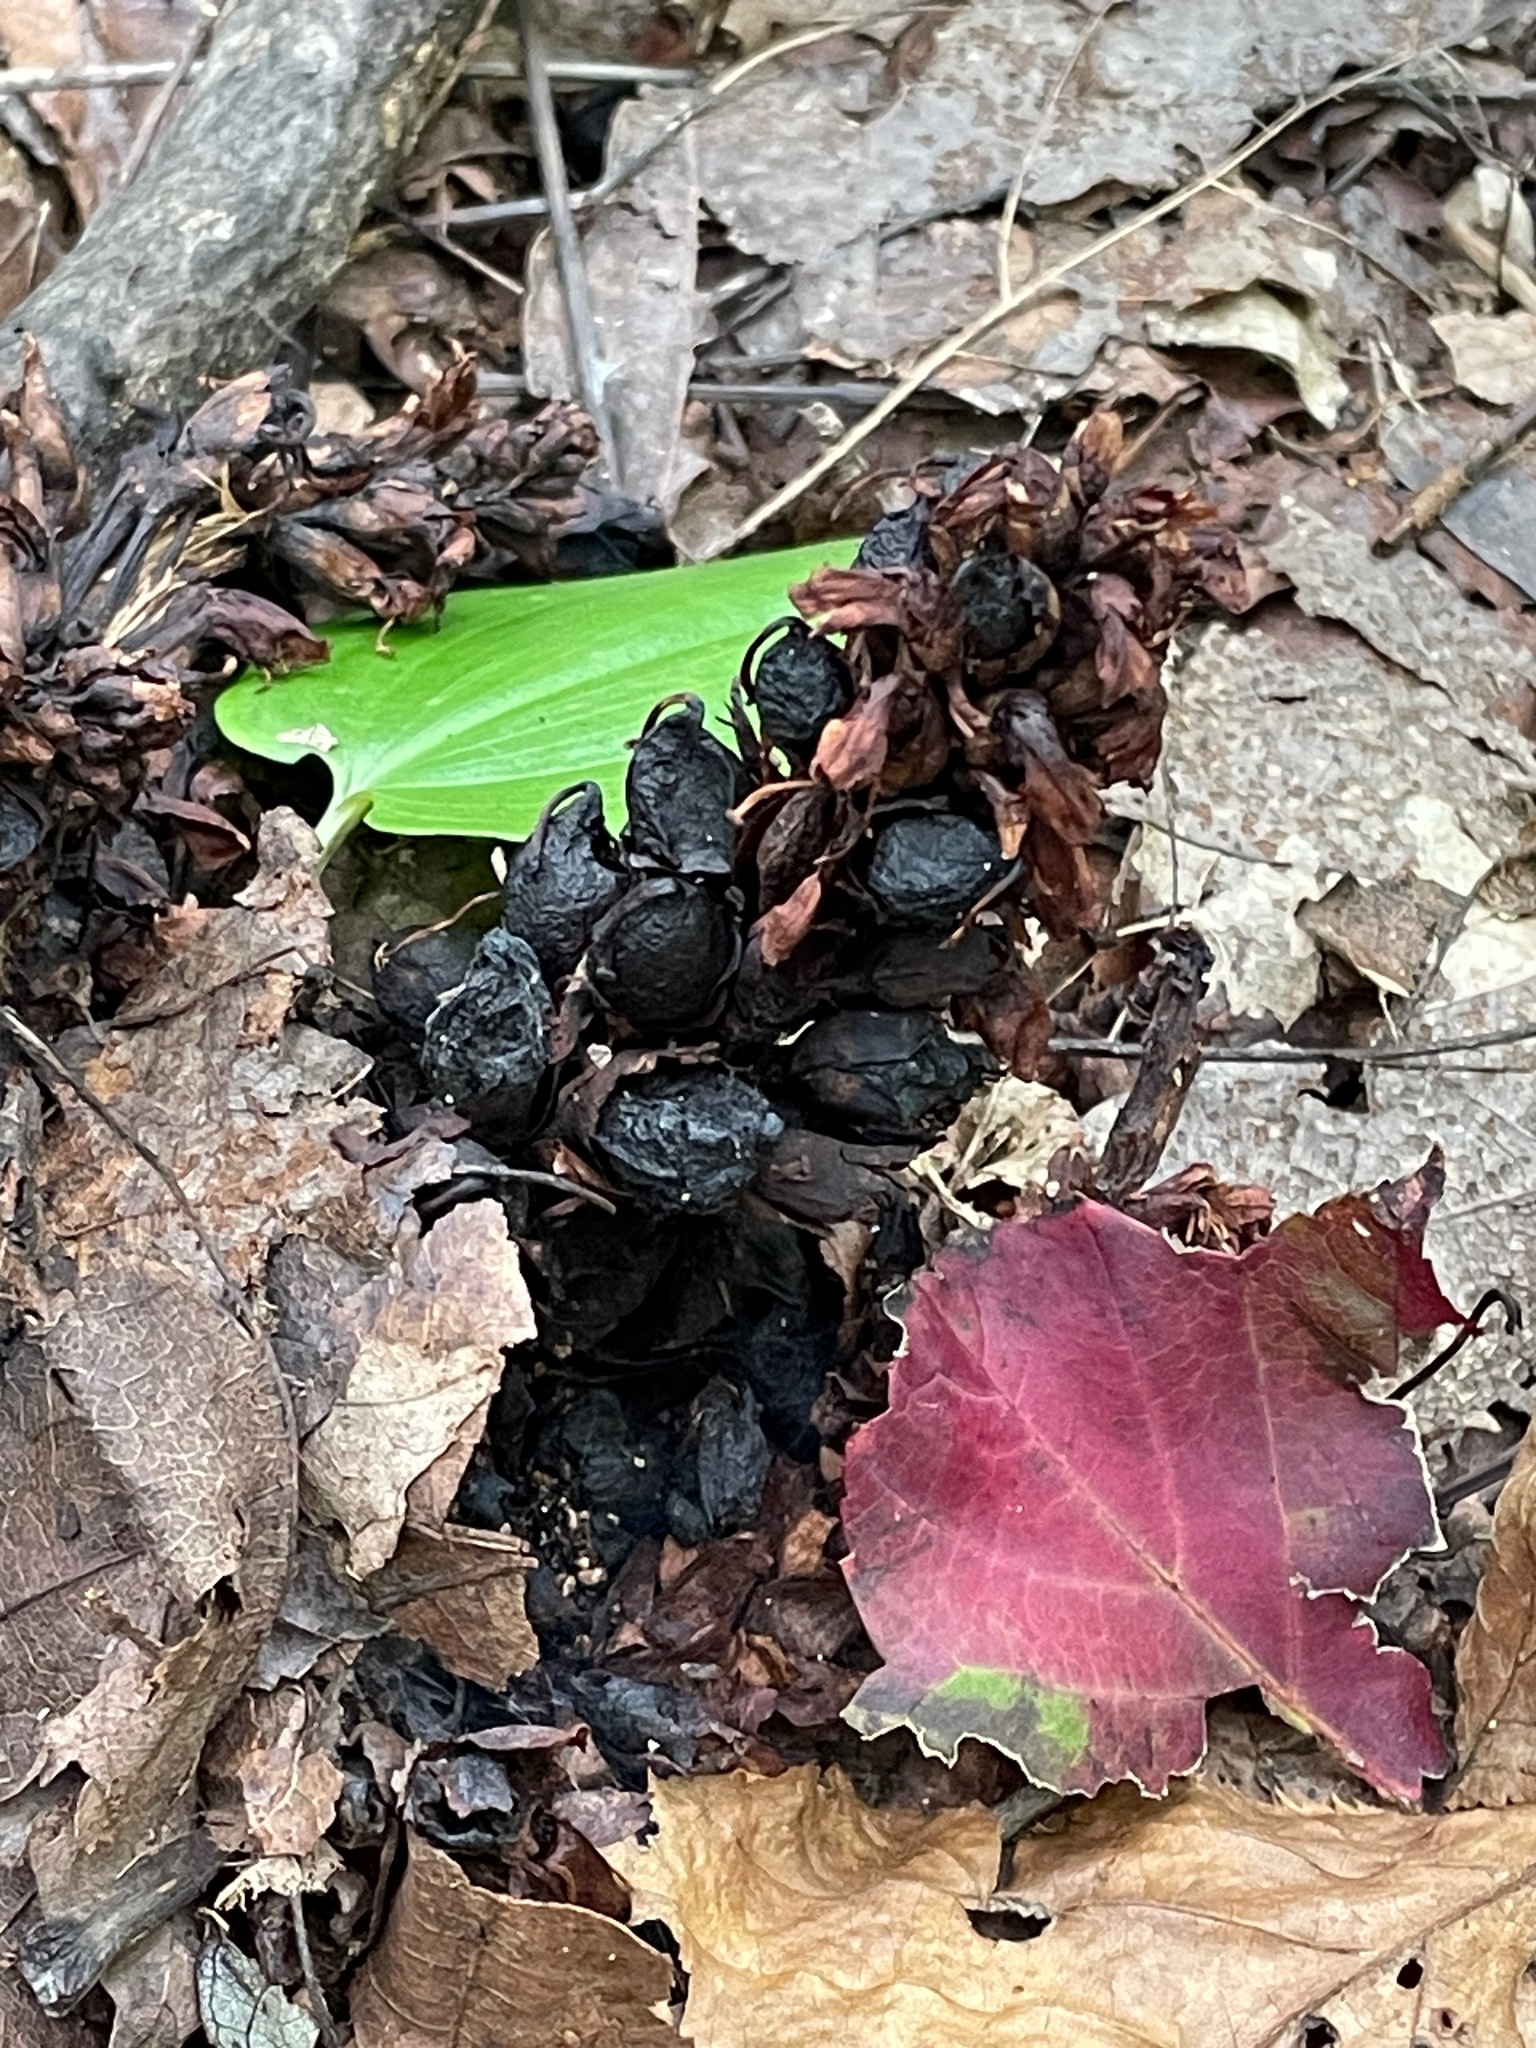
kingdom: Plantae
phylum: Tracheophyta
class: Magnoliopsida
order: Lamiales
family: Orobanchaceae
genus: Conopholis
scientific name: Conopholis americana
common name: American cancer-root
